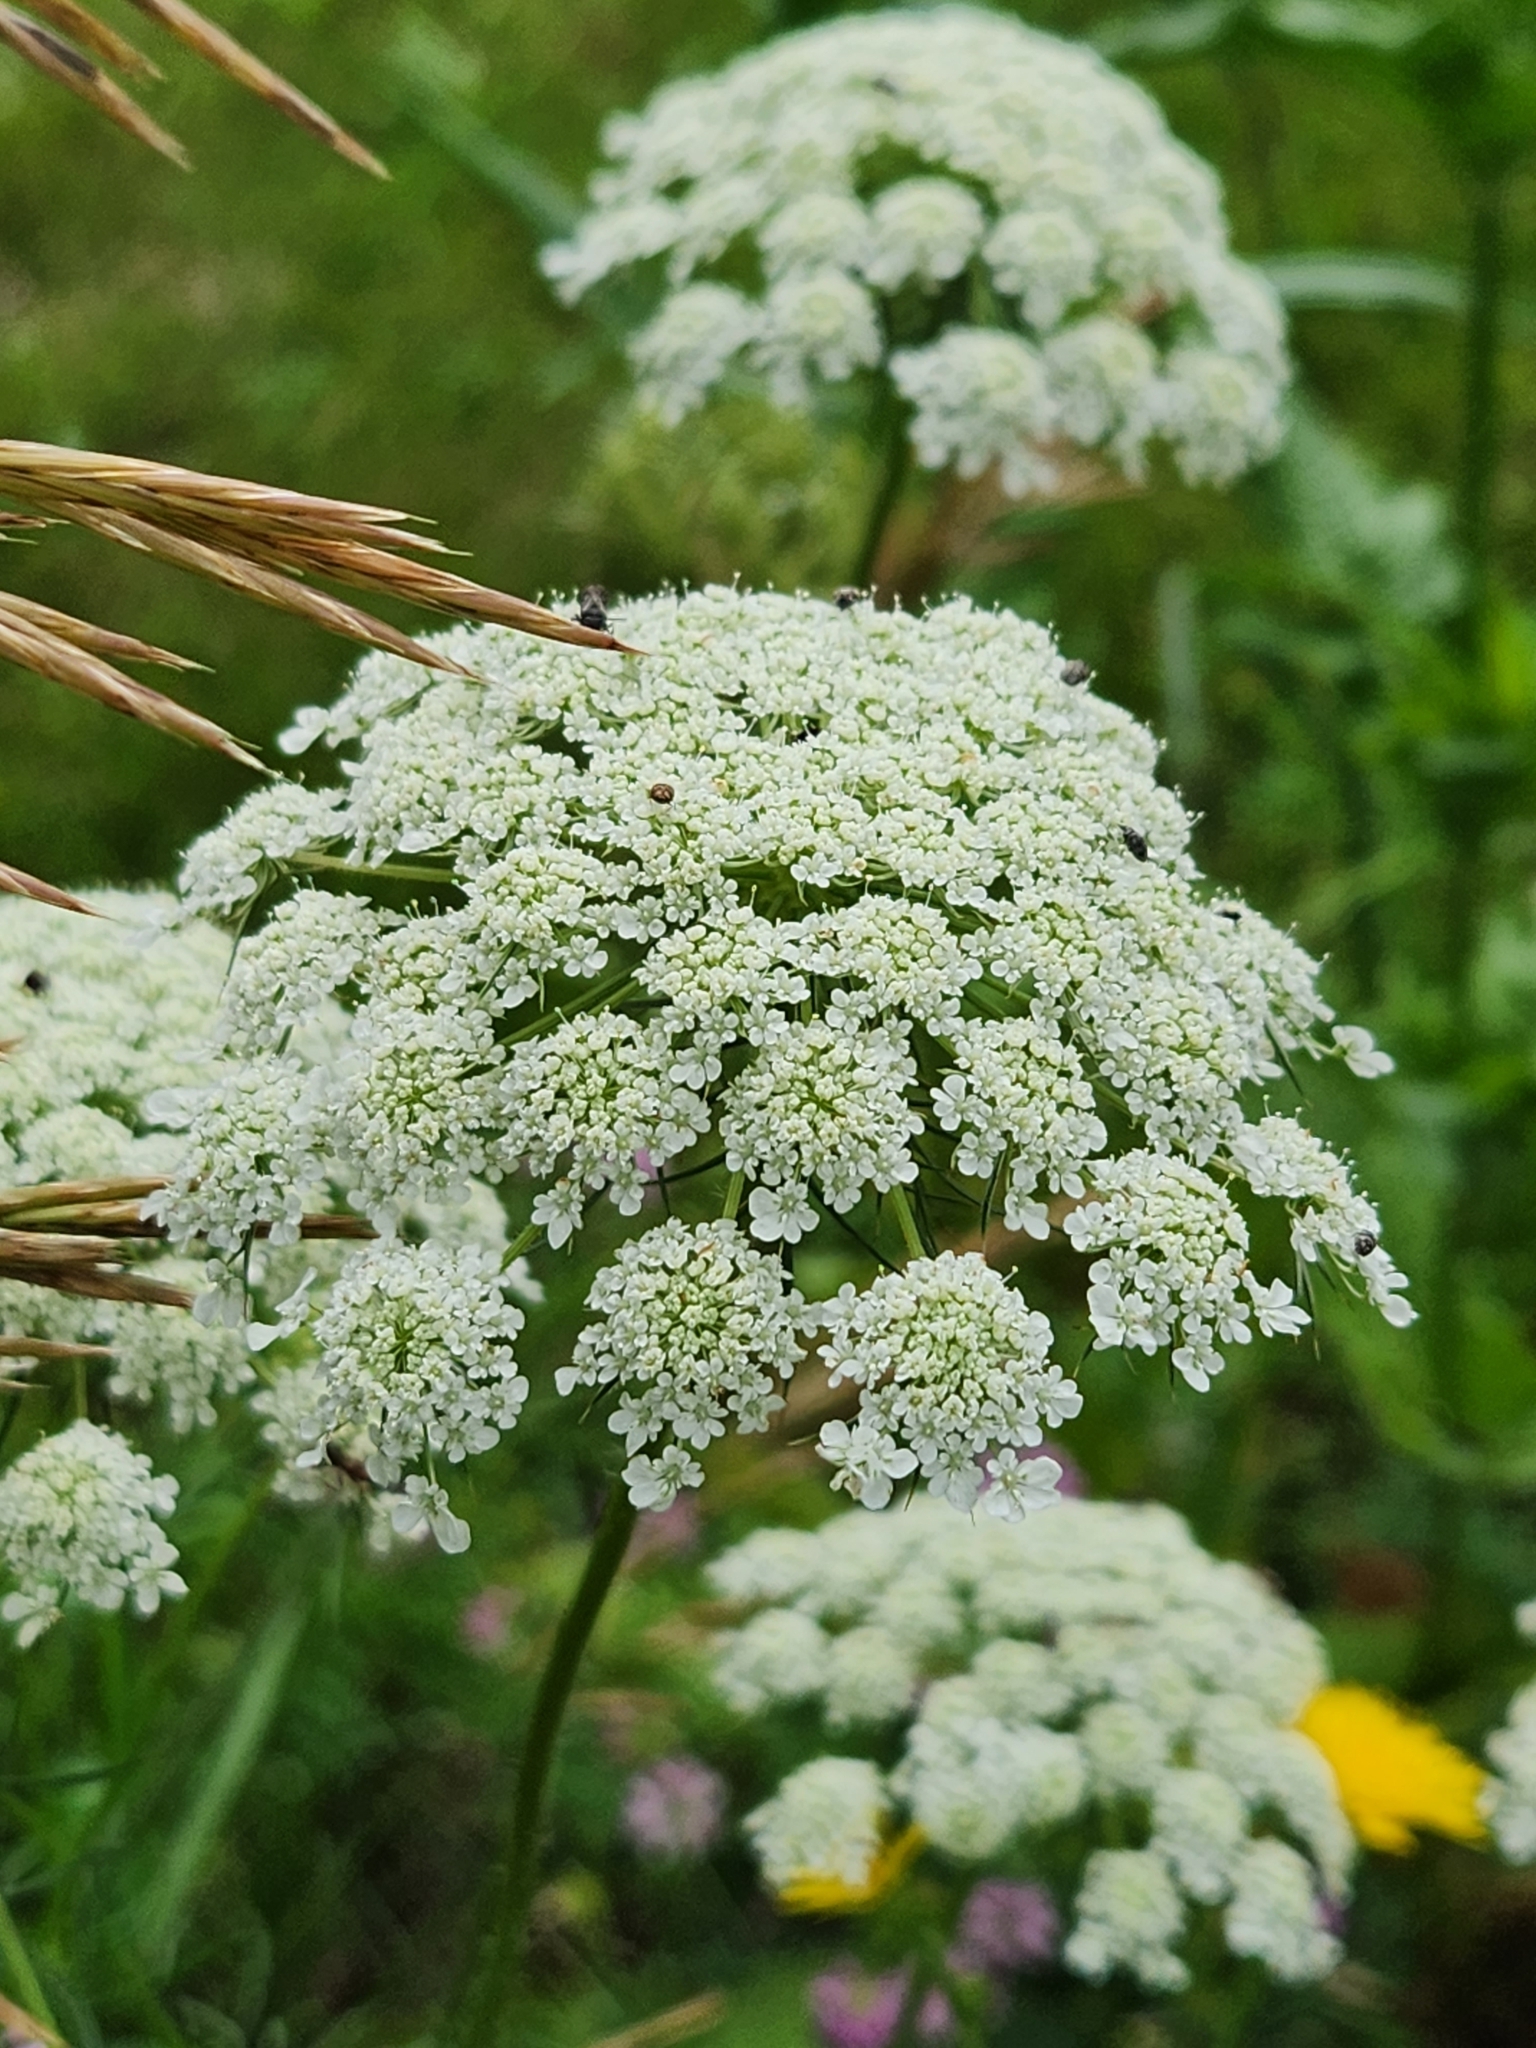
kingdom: Plantae
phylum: Tracheophyta
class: Magnoliopsida
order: Apiales
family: Apiaceae
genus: Daucus
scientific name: Daucus carota
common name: Wild carrot
